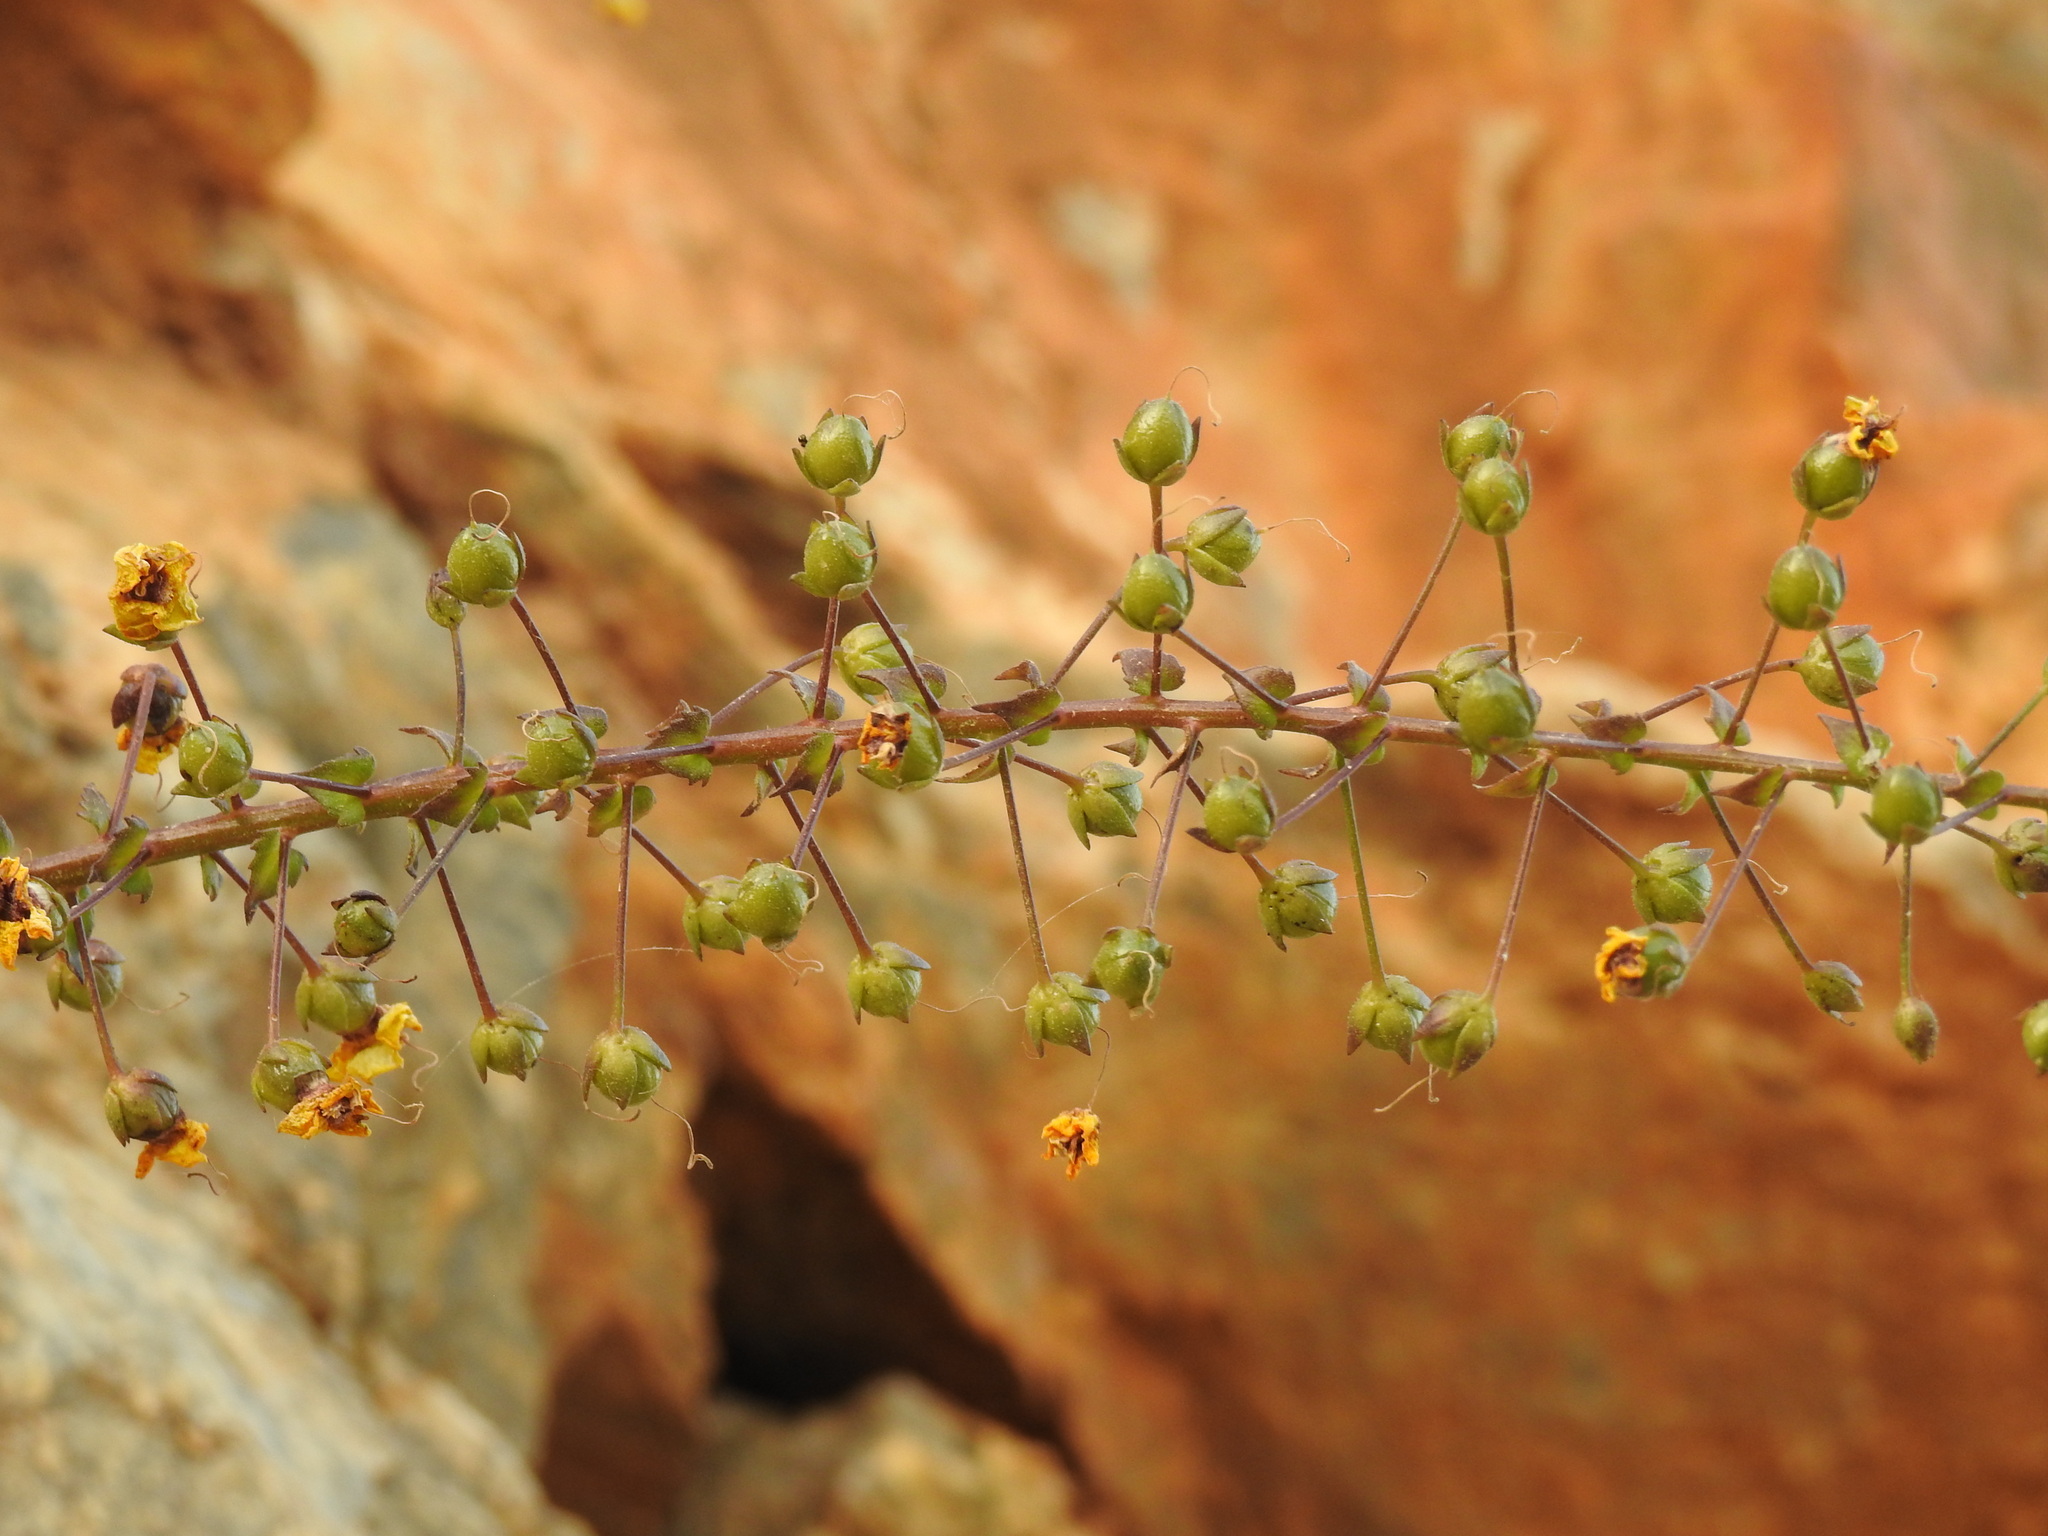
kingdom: Plantae
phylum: Tracheophyta
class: Magnoliopsida
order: Lamiales
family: Scrophulariaceae
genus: Verbascum
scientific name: Verbascum arcturus
